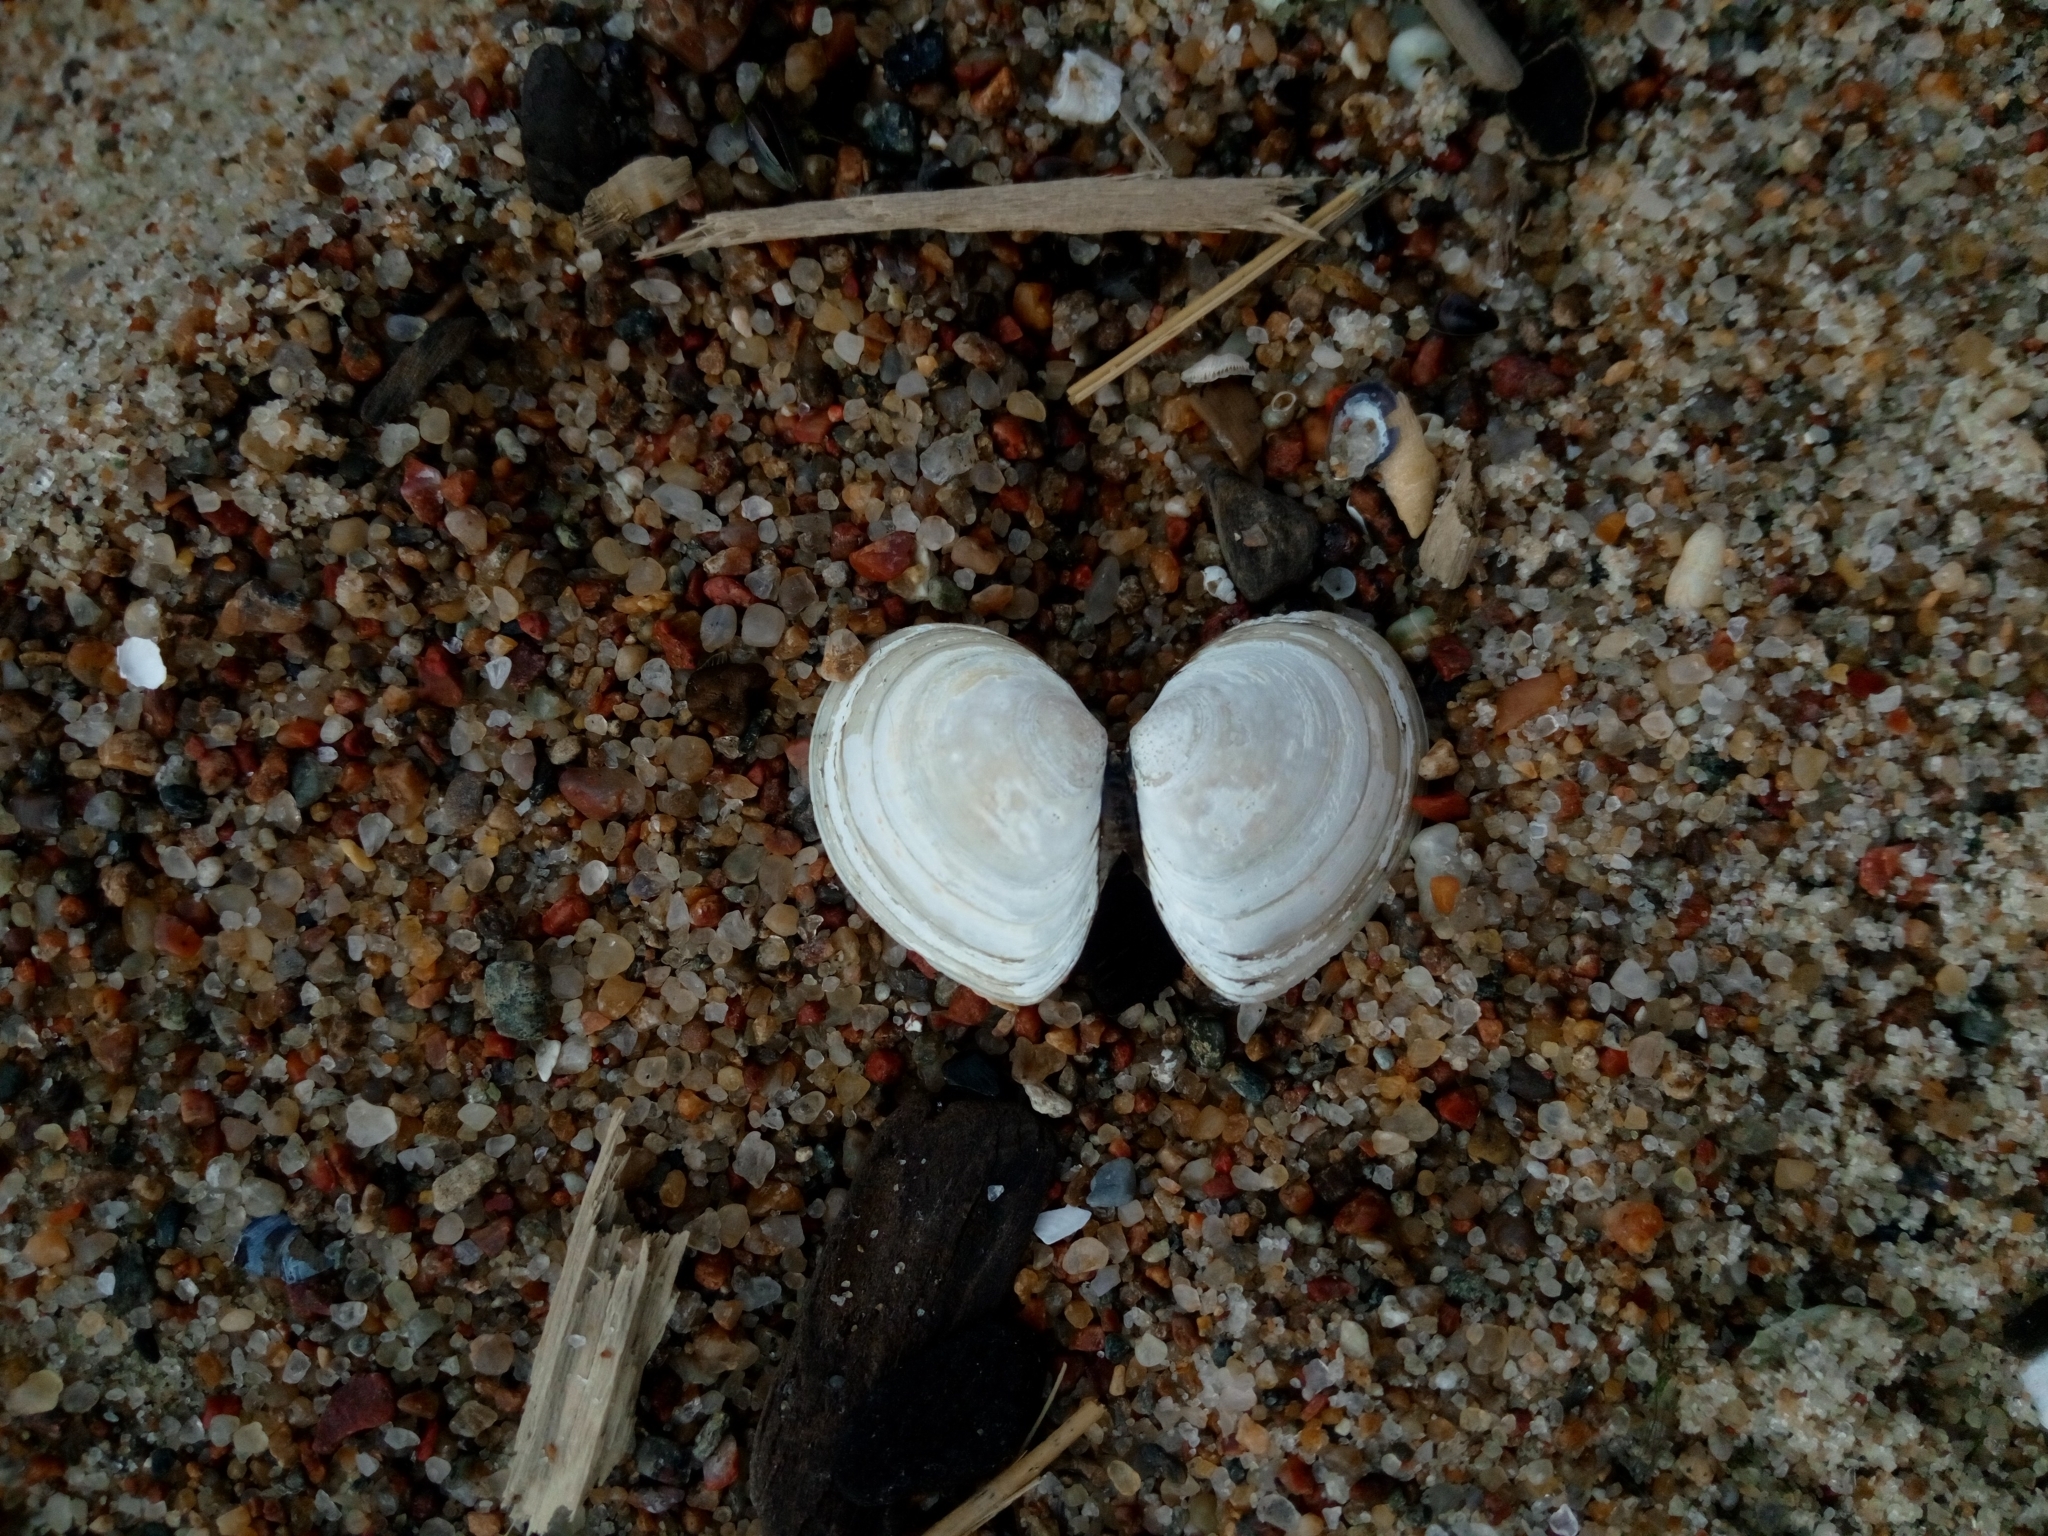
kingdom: Animalia
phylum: Mollusca
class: Bivalvia
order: Cardiida
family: Tellinidae
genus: Macoma
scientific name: Macoma balthica
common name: Baltic tellin
